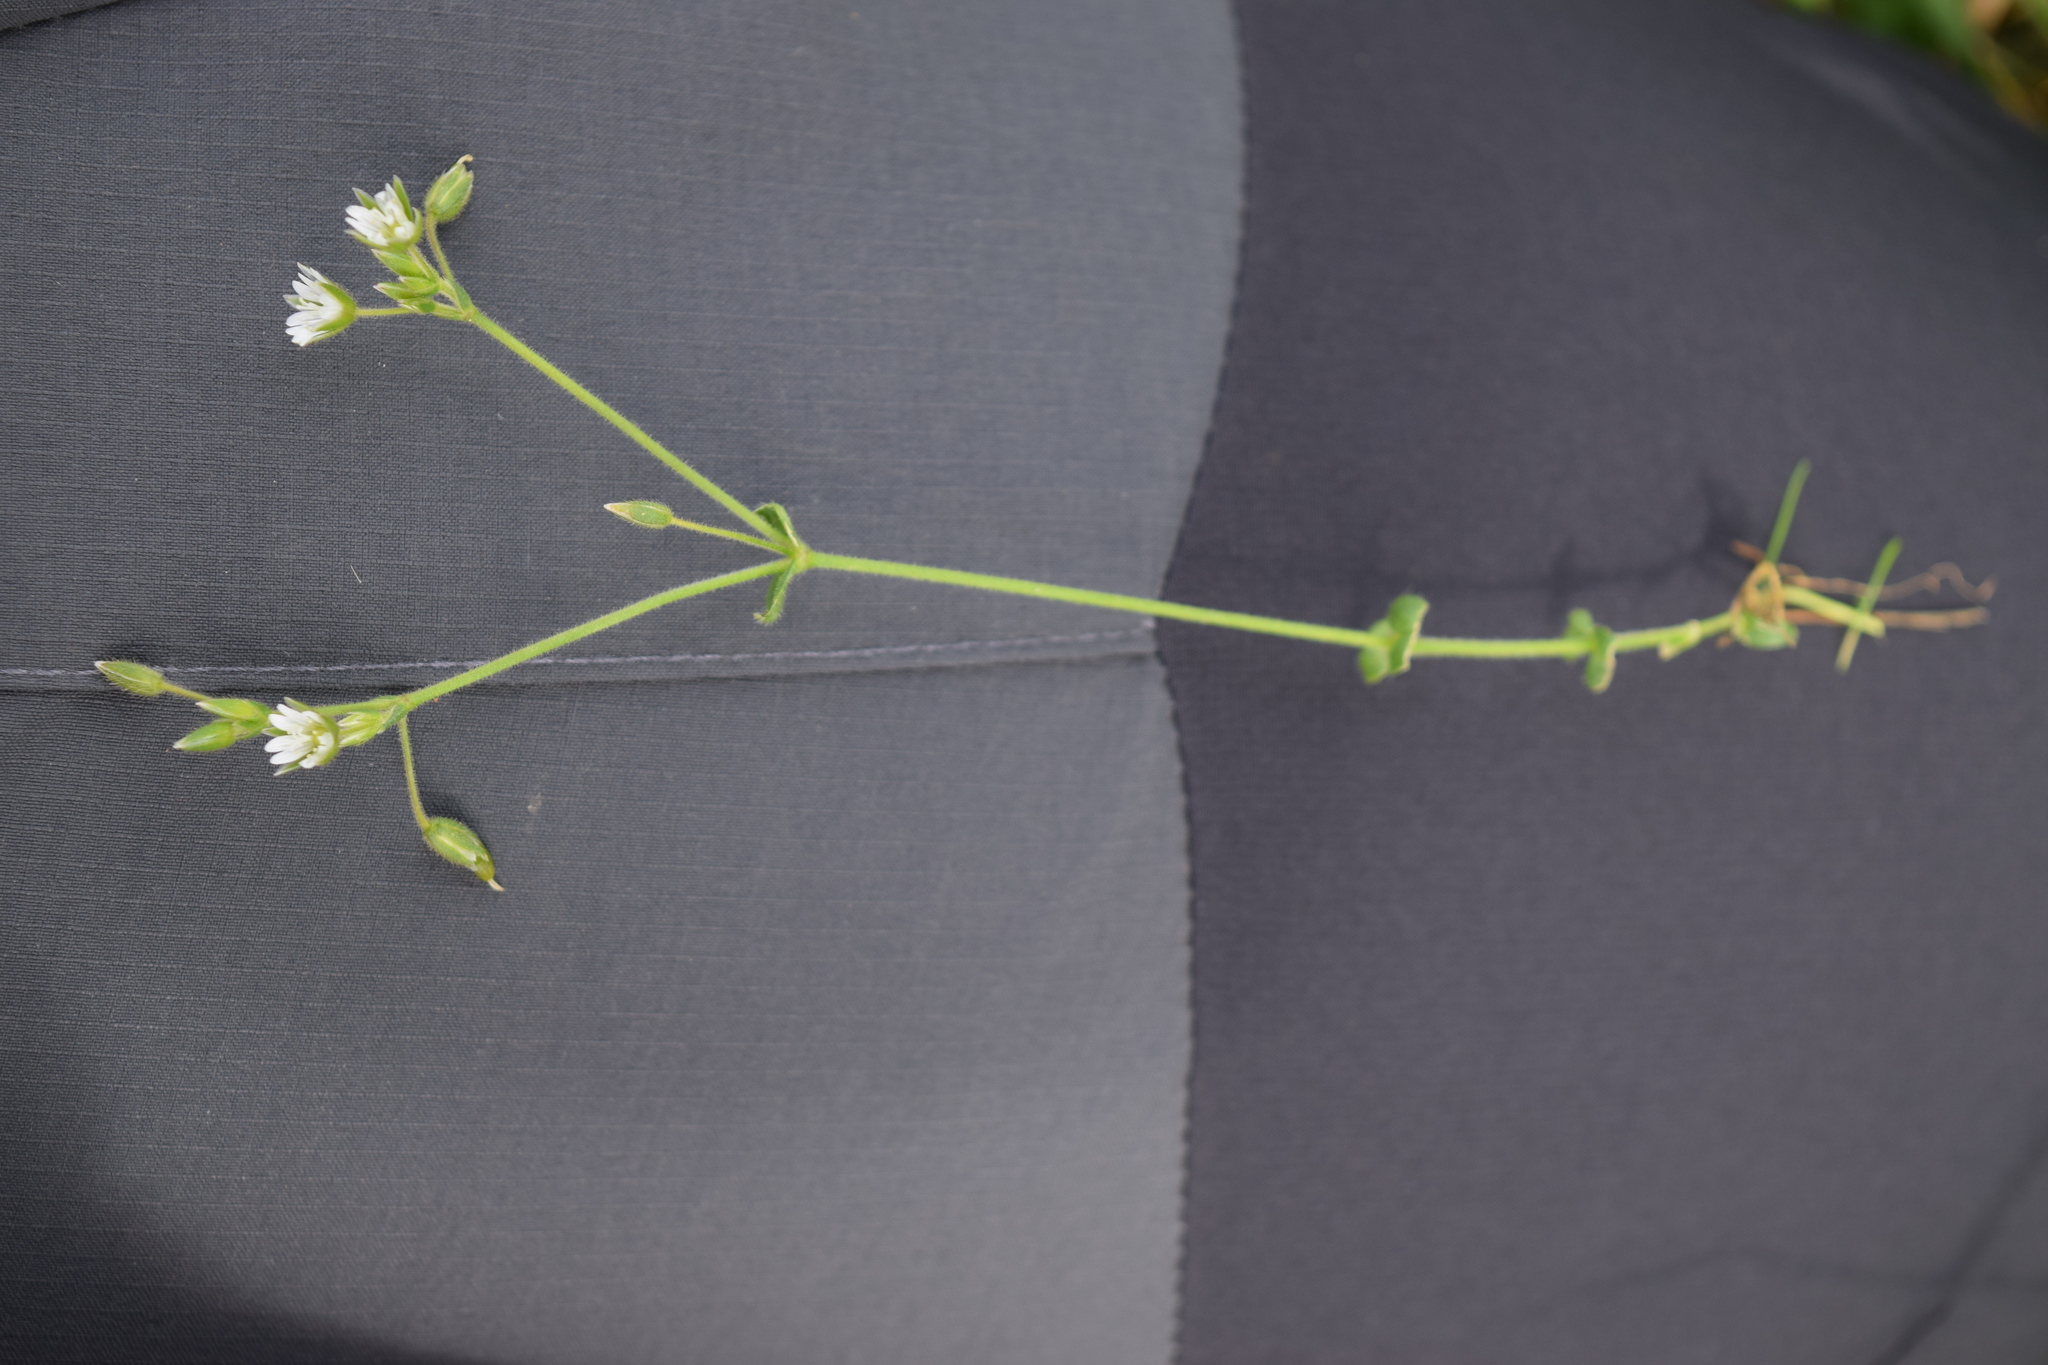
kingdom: Plantae
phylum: Tracheophyta
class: Magnoliopsida
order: Caryophyllales
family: Caryophyllaceae
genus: Cerastium
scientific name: Cerastium holosteoides
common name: Big chickweed
